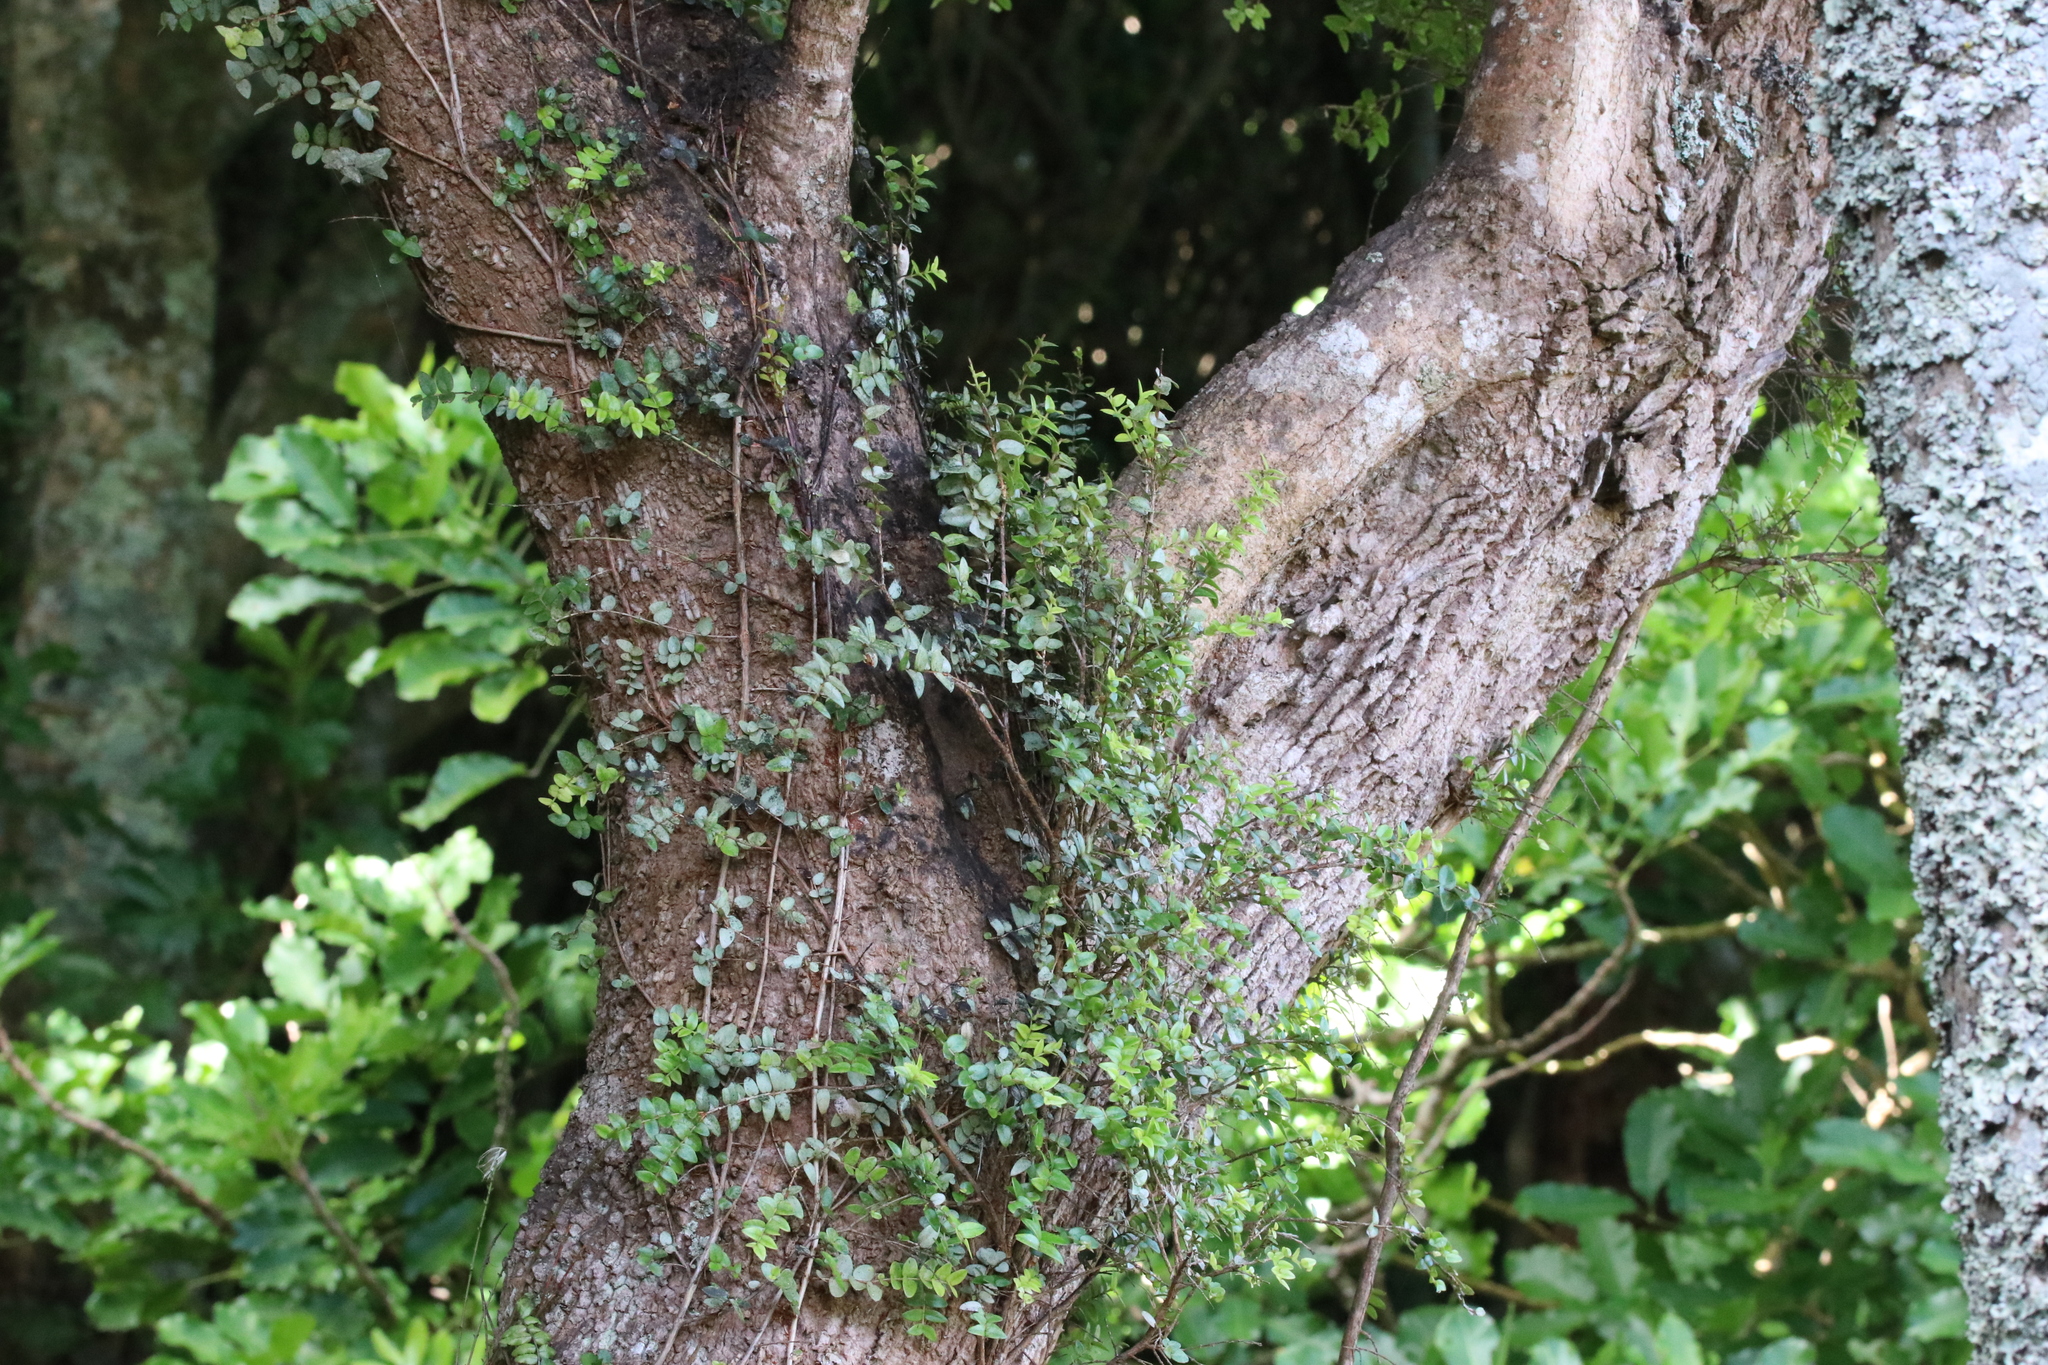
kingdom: Plantae
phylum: Tracheophyta
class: Magnoliopsida
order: Laurales
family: Monimiaceae
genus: Hedycarya
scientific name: Hedycarya arborea
